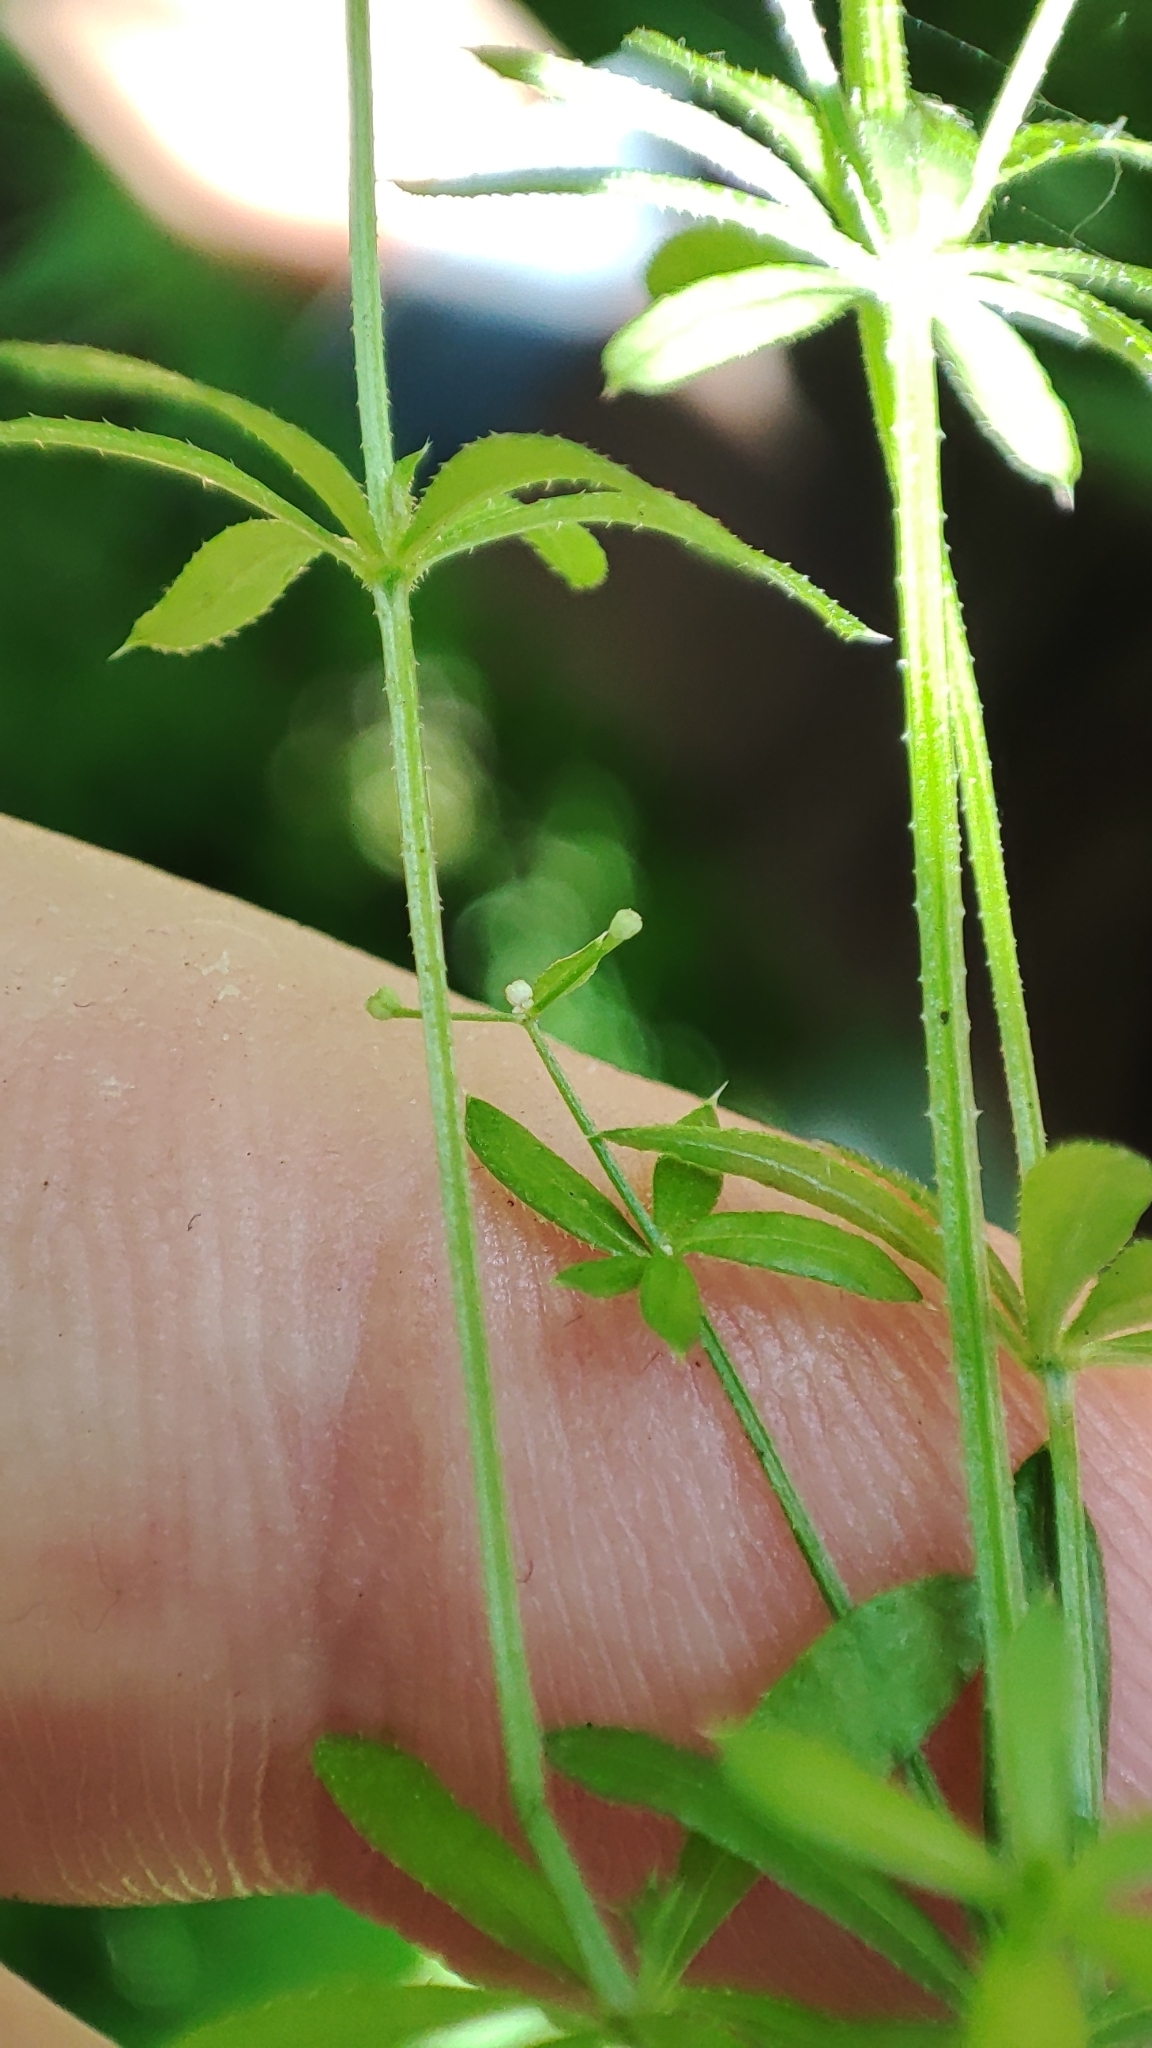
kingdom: Plantae
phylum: Tracheophyta
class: Magnoliopsida
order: Gentianales
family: Rubiaceae
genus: Galium
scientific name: Galium uliginosum
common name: Fen bedstraw
